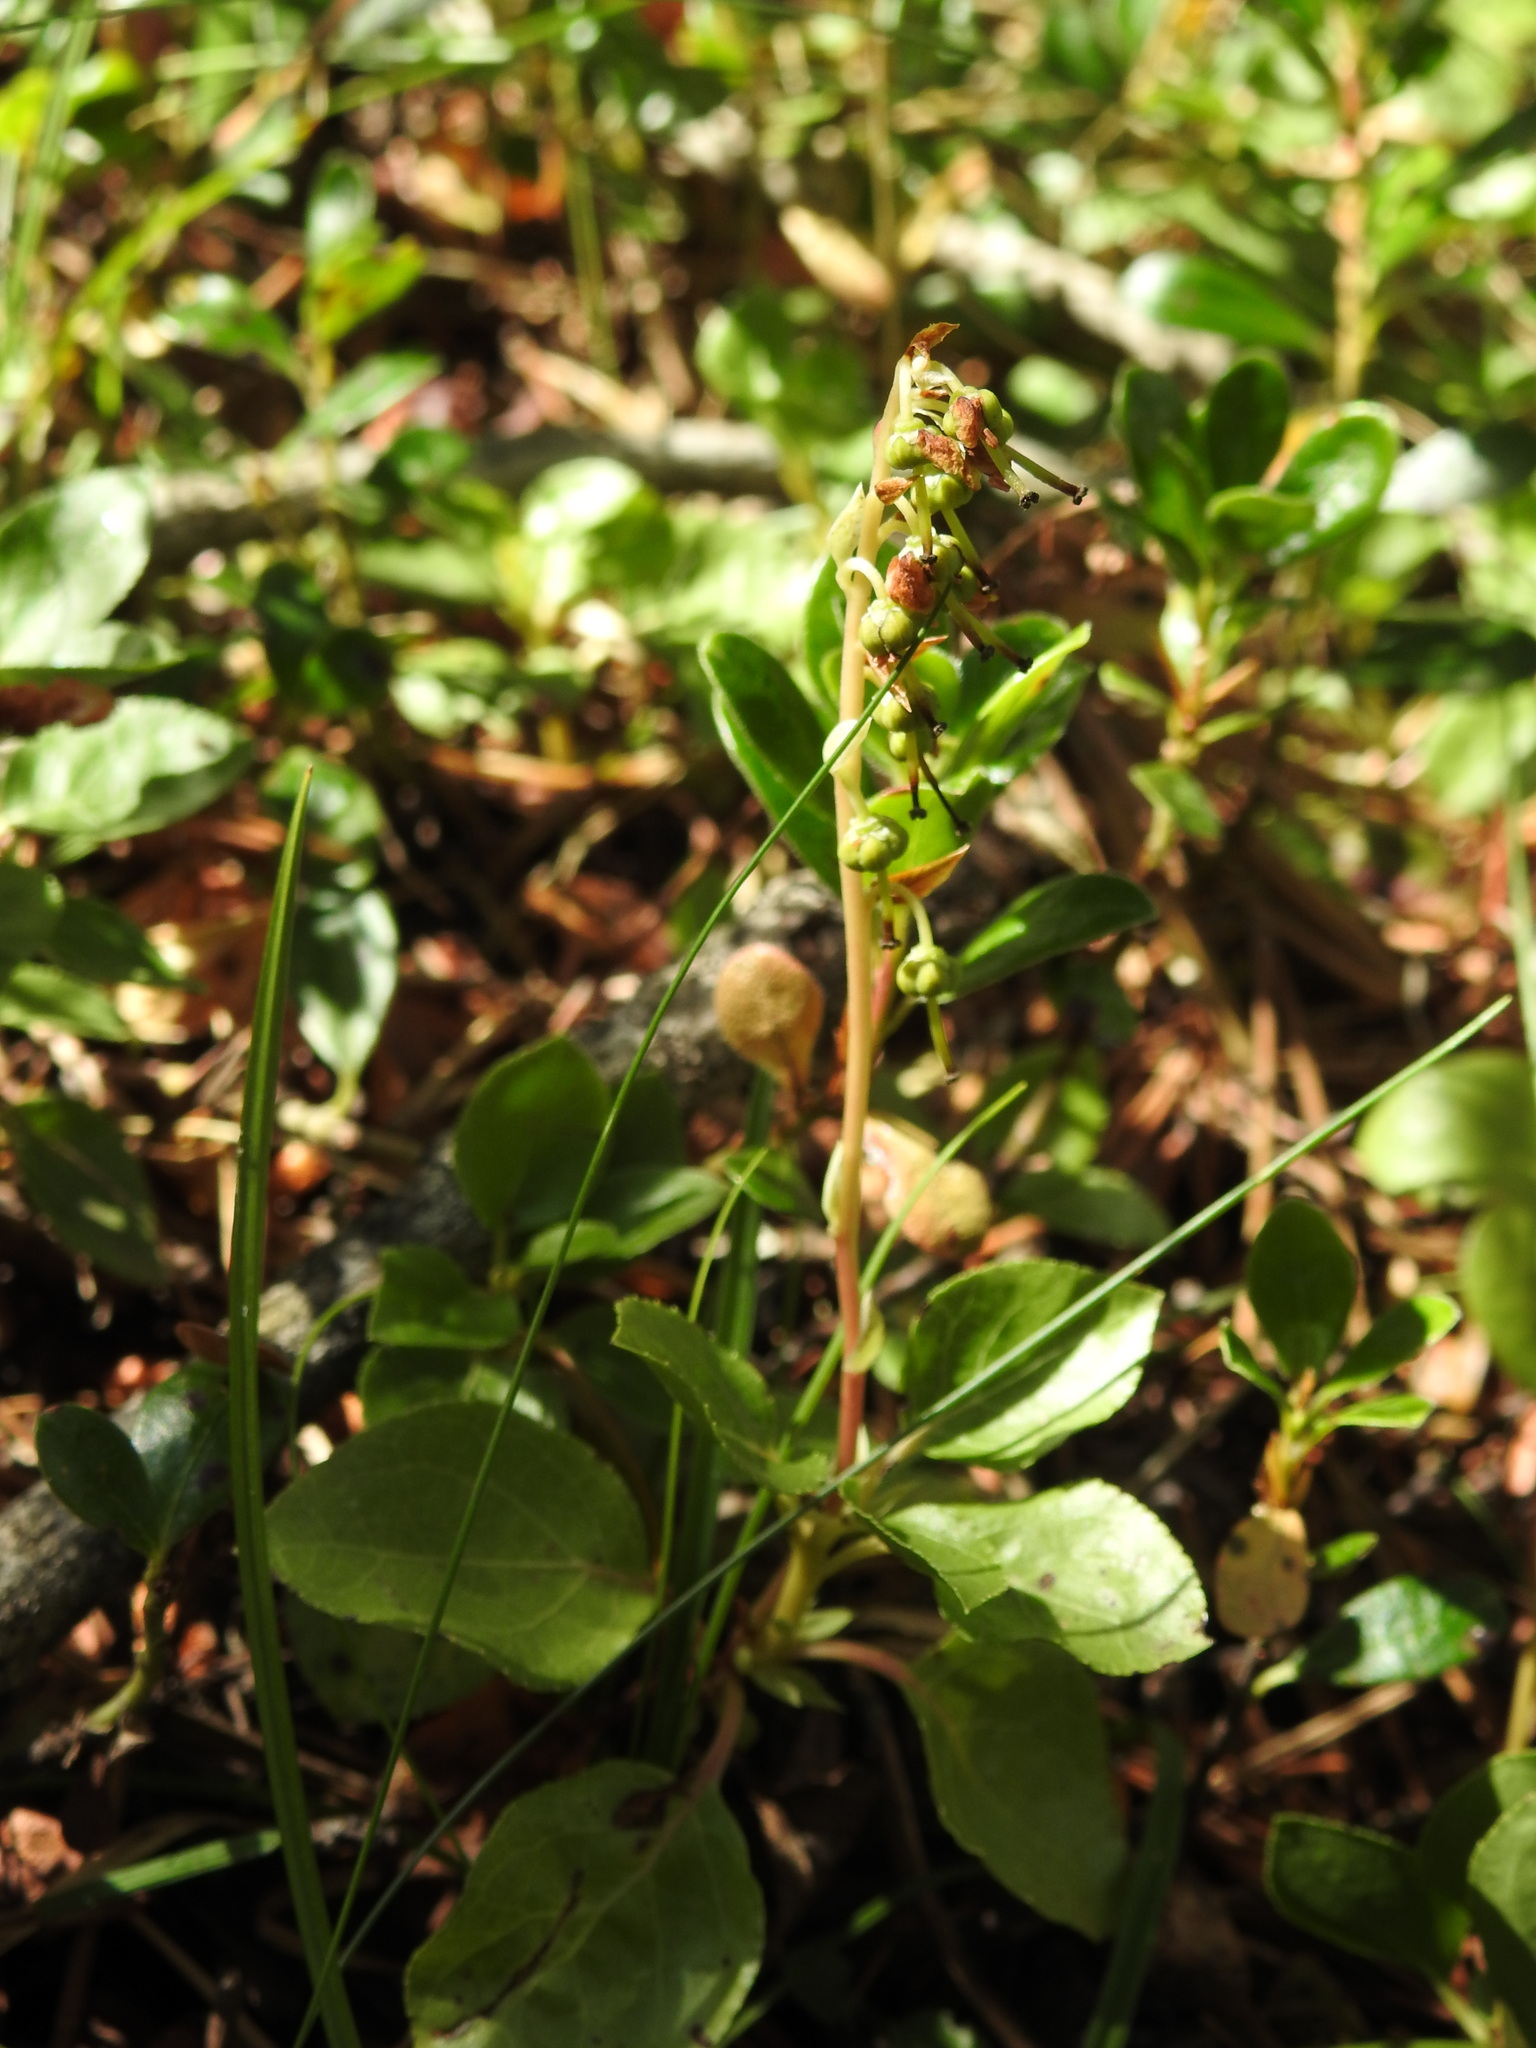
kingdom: Plantae
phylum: Tracheophyta
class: Magnoliopsida
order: Ericales
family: Ericaceae
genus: Orthilia
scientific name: Orthilia secunda
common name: One-sided orthilia
